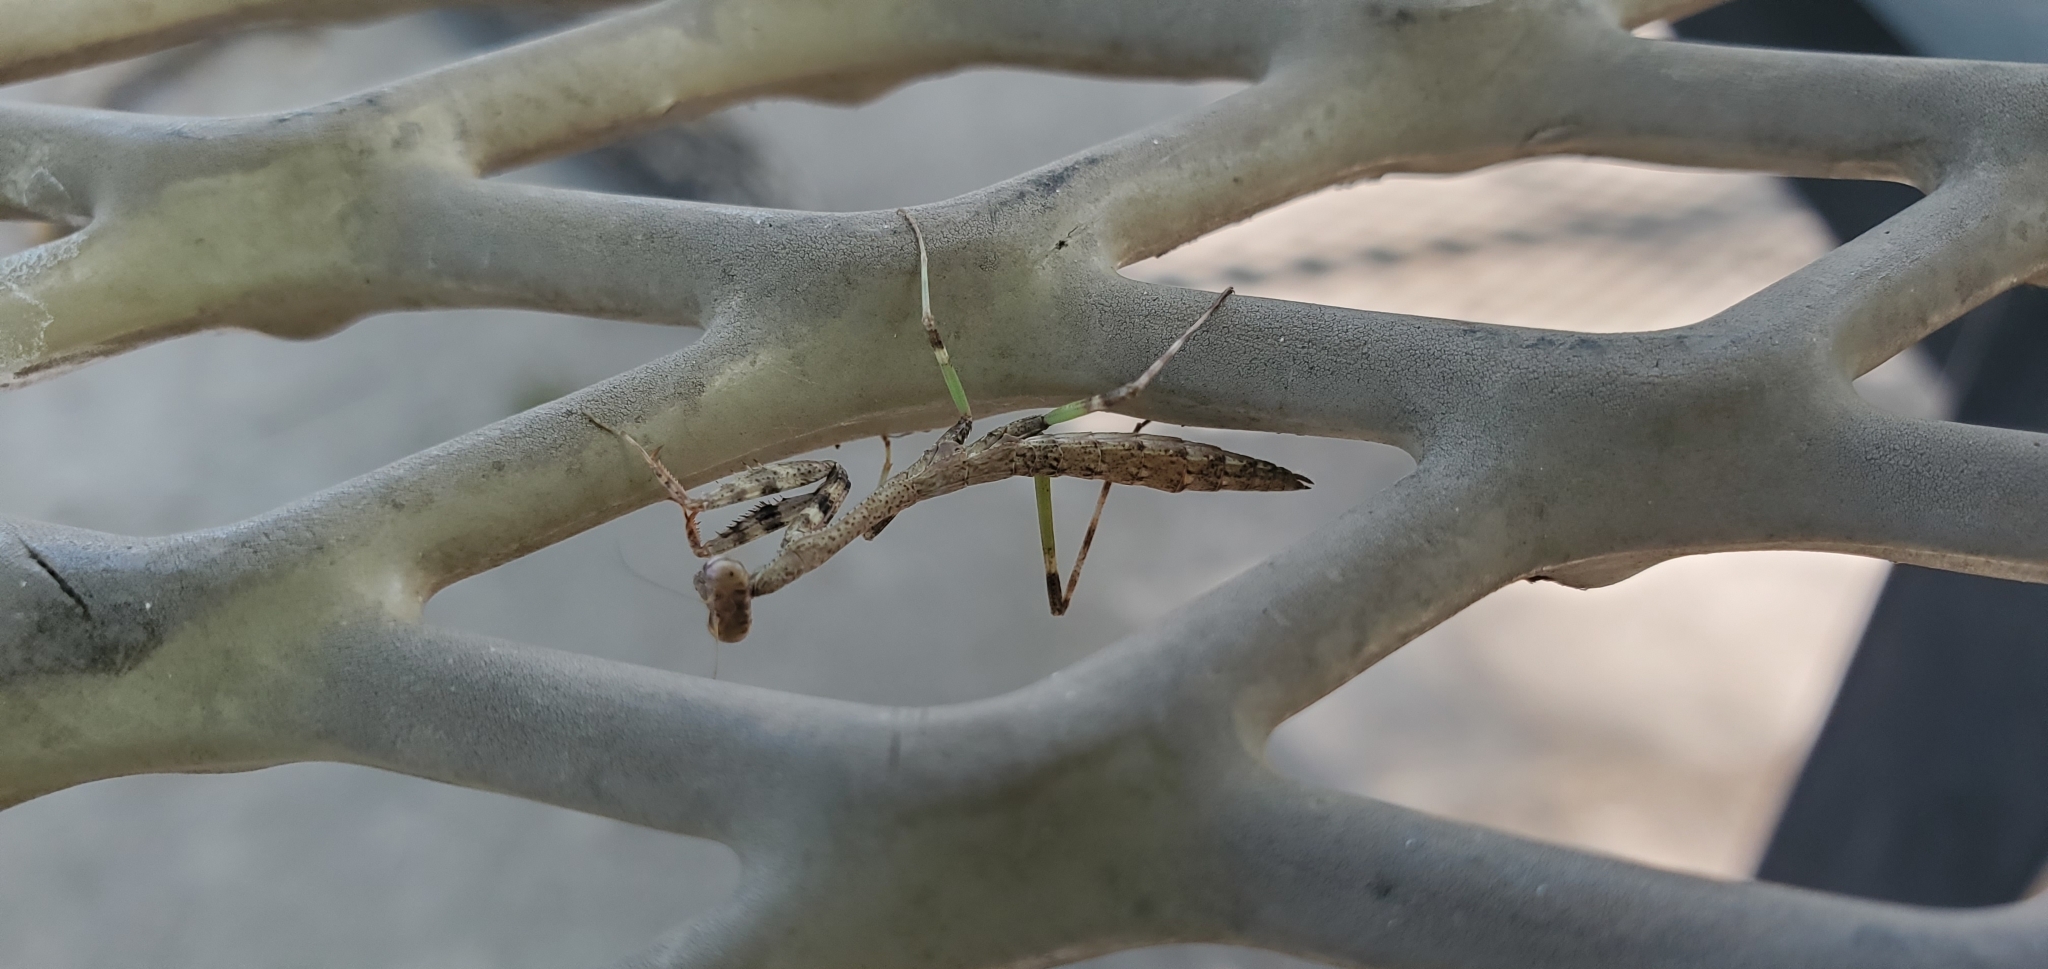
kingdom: Animalia
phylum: Arthropoda
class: Insecta
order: Mantodea
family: Mantidae
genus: Stagmomantis
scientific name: Stagmomantis carolina
